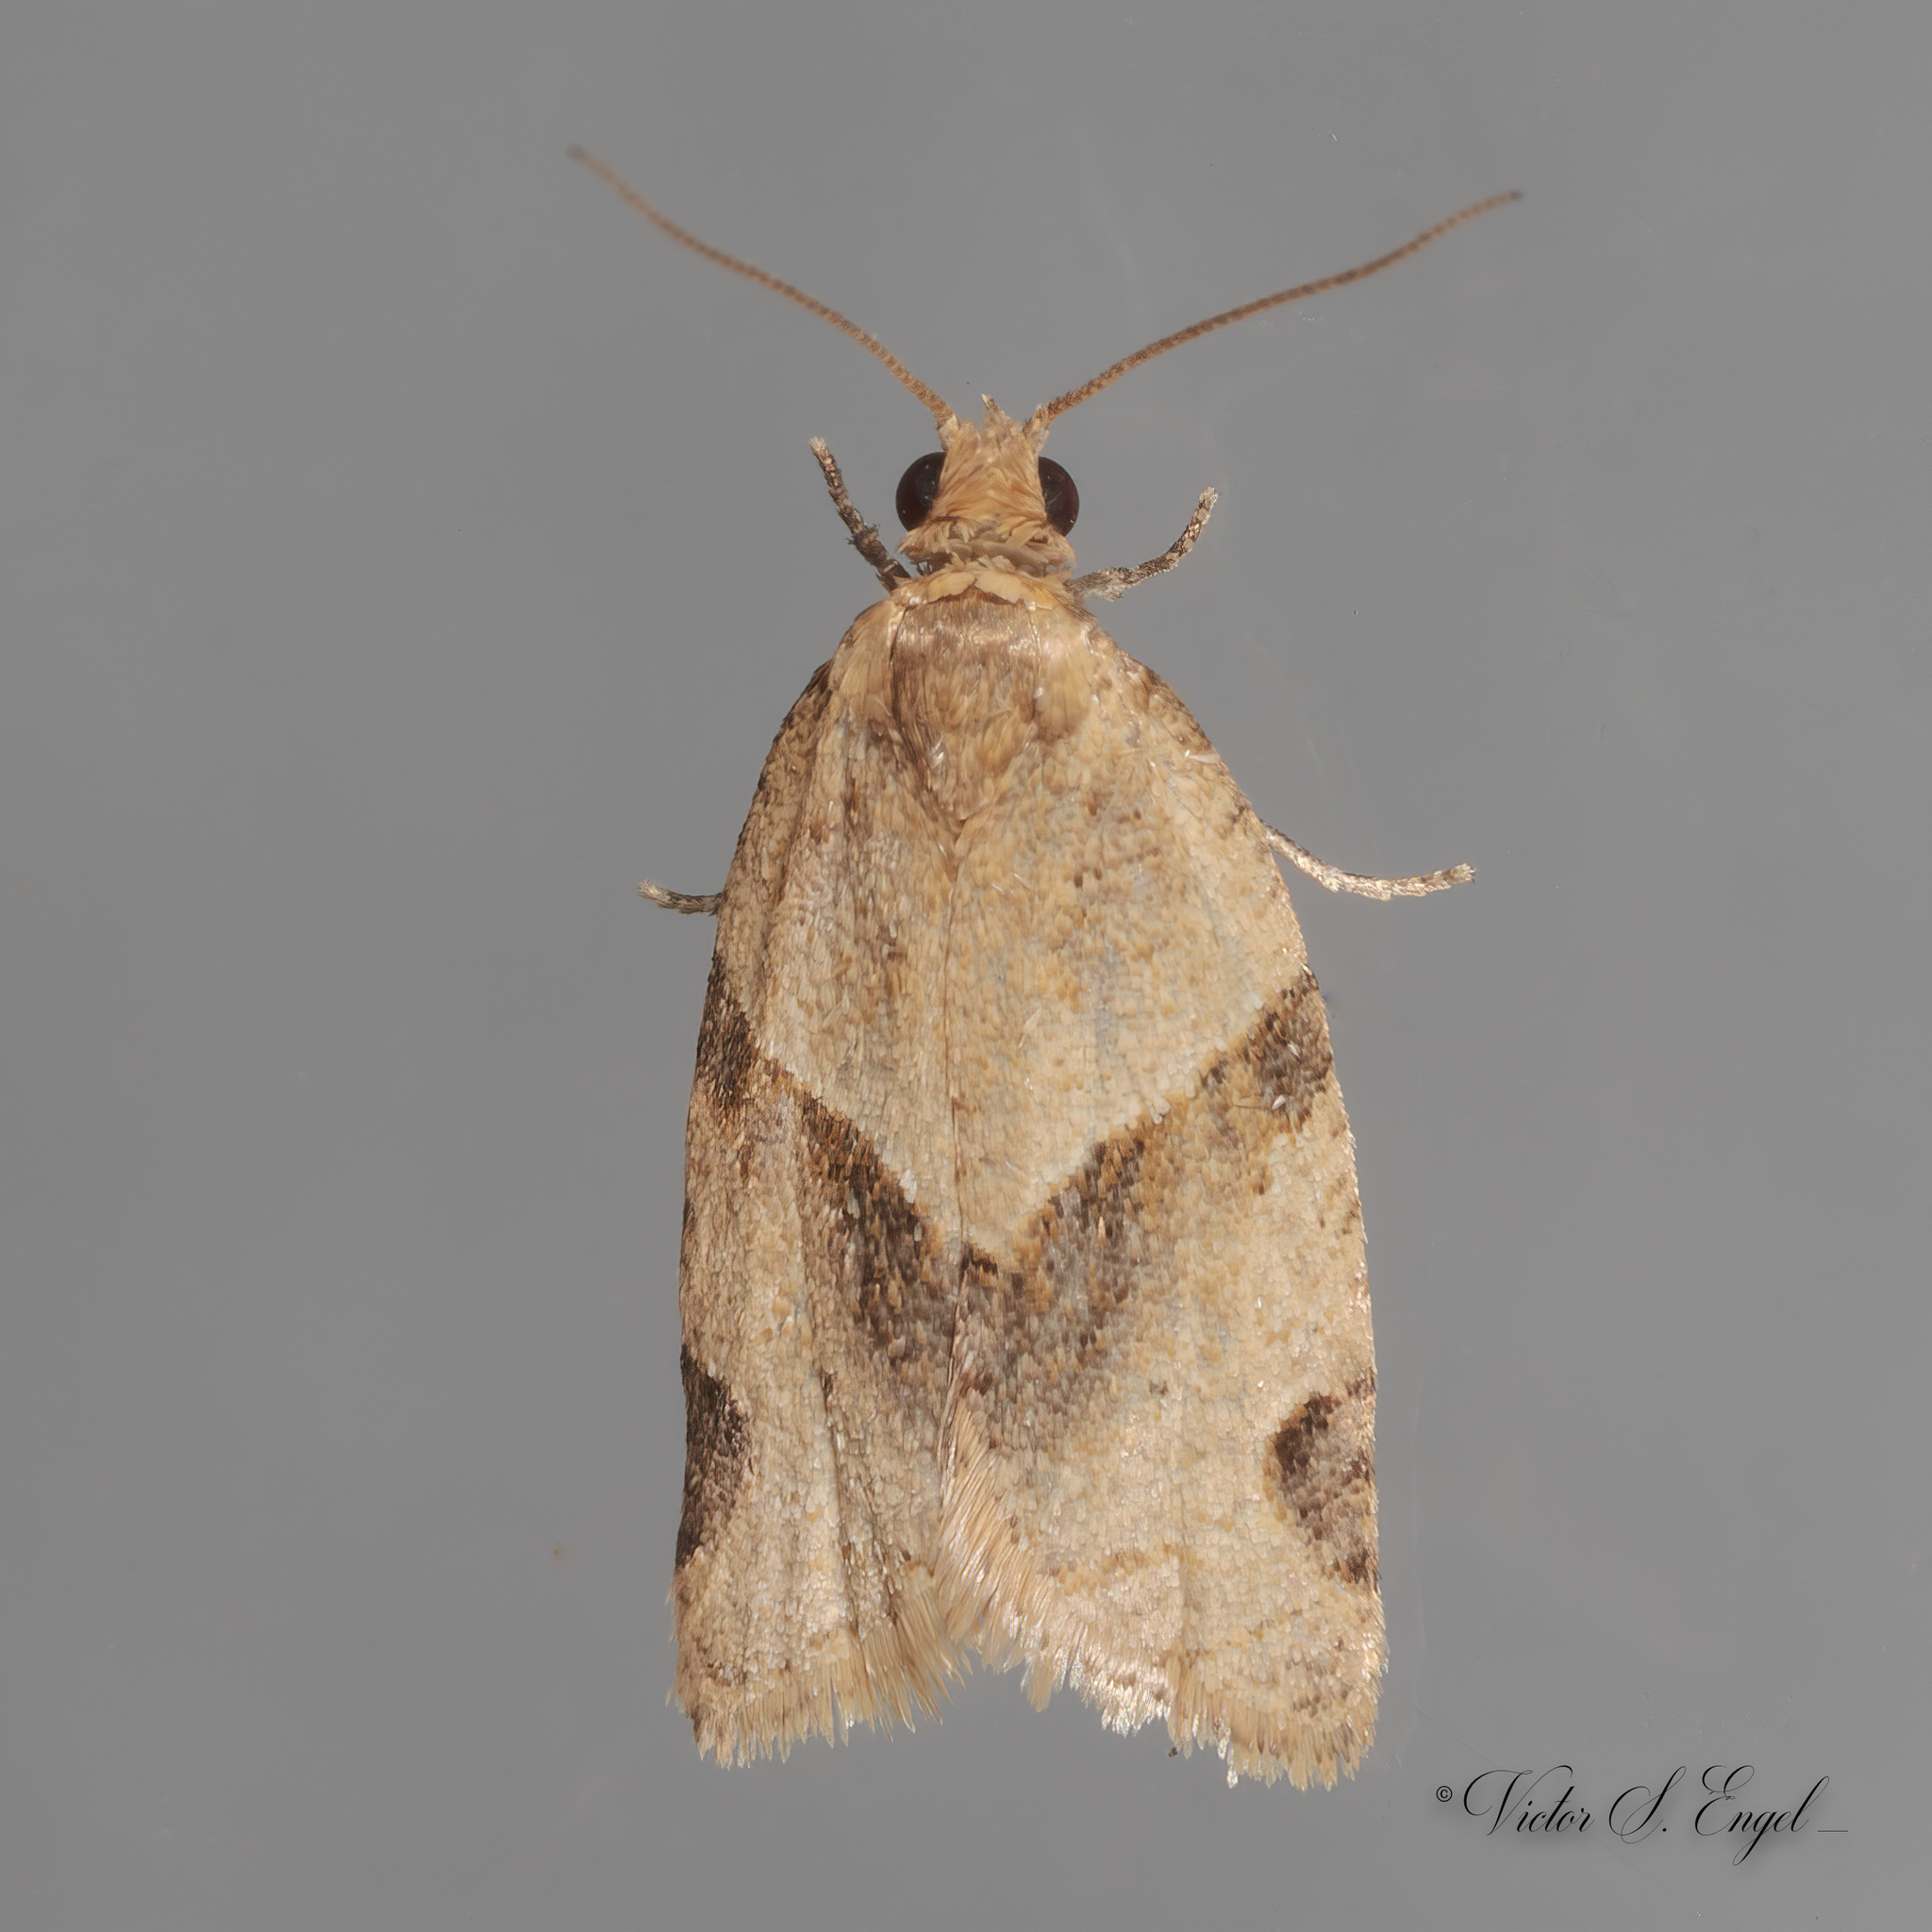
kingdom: Animalia
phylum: Arthropoda
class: Insecta
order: Lepidoptera
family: Tortricidae
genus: Clepsis
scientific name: Clepsis peritana
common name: Garden tortrix
